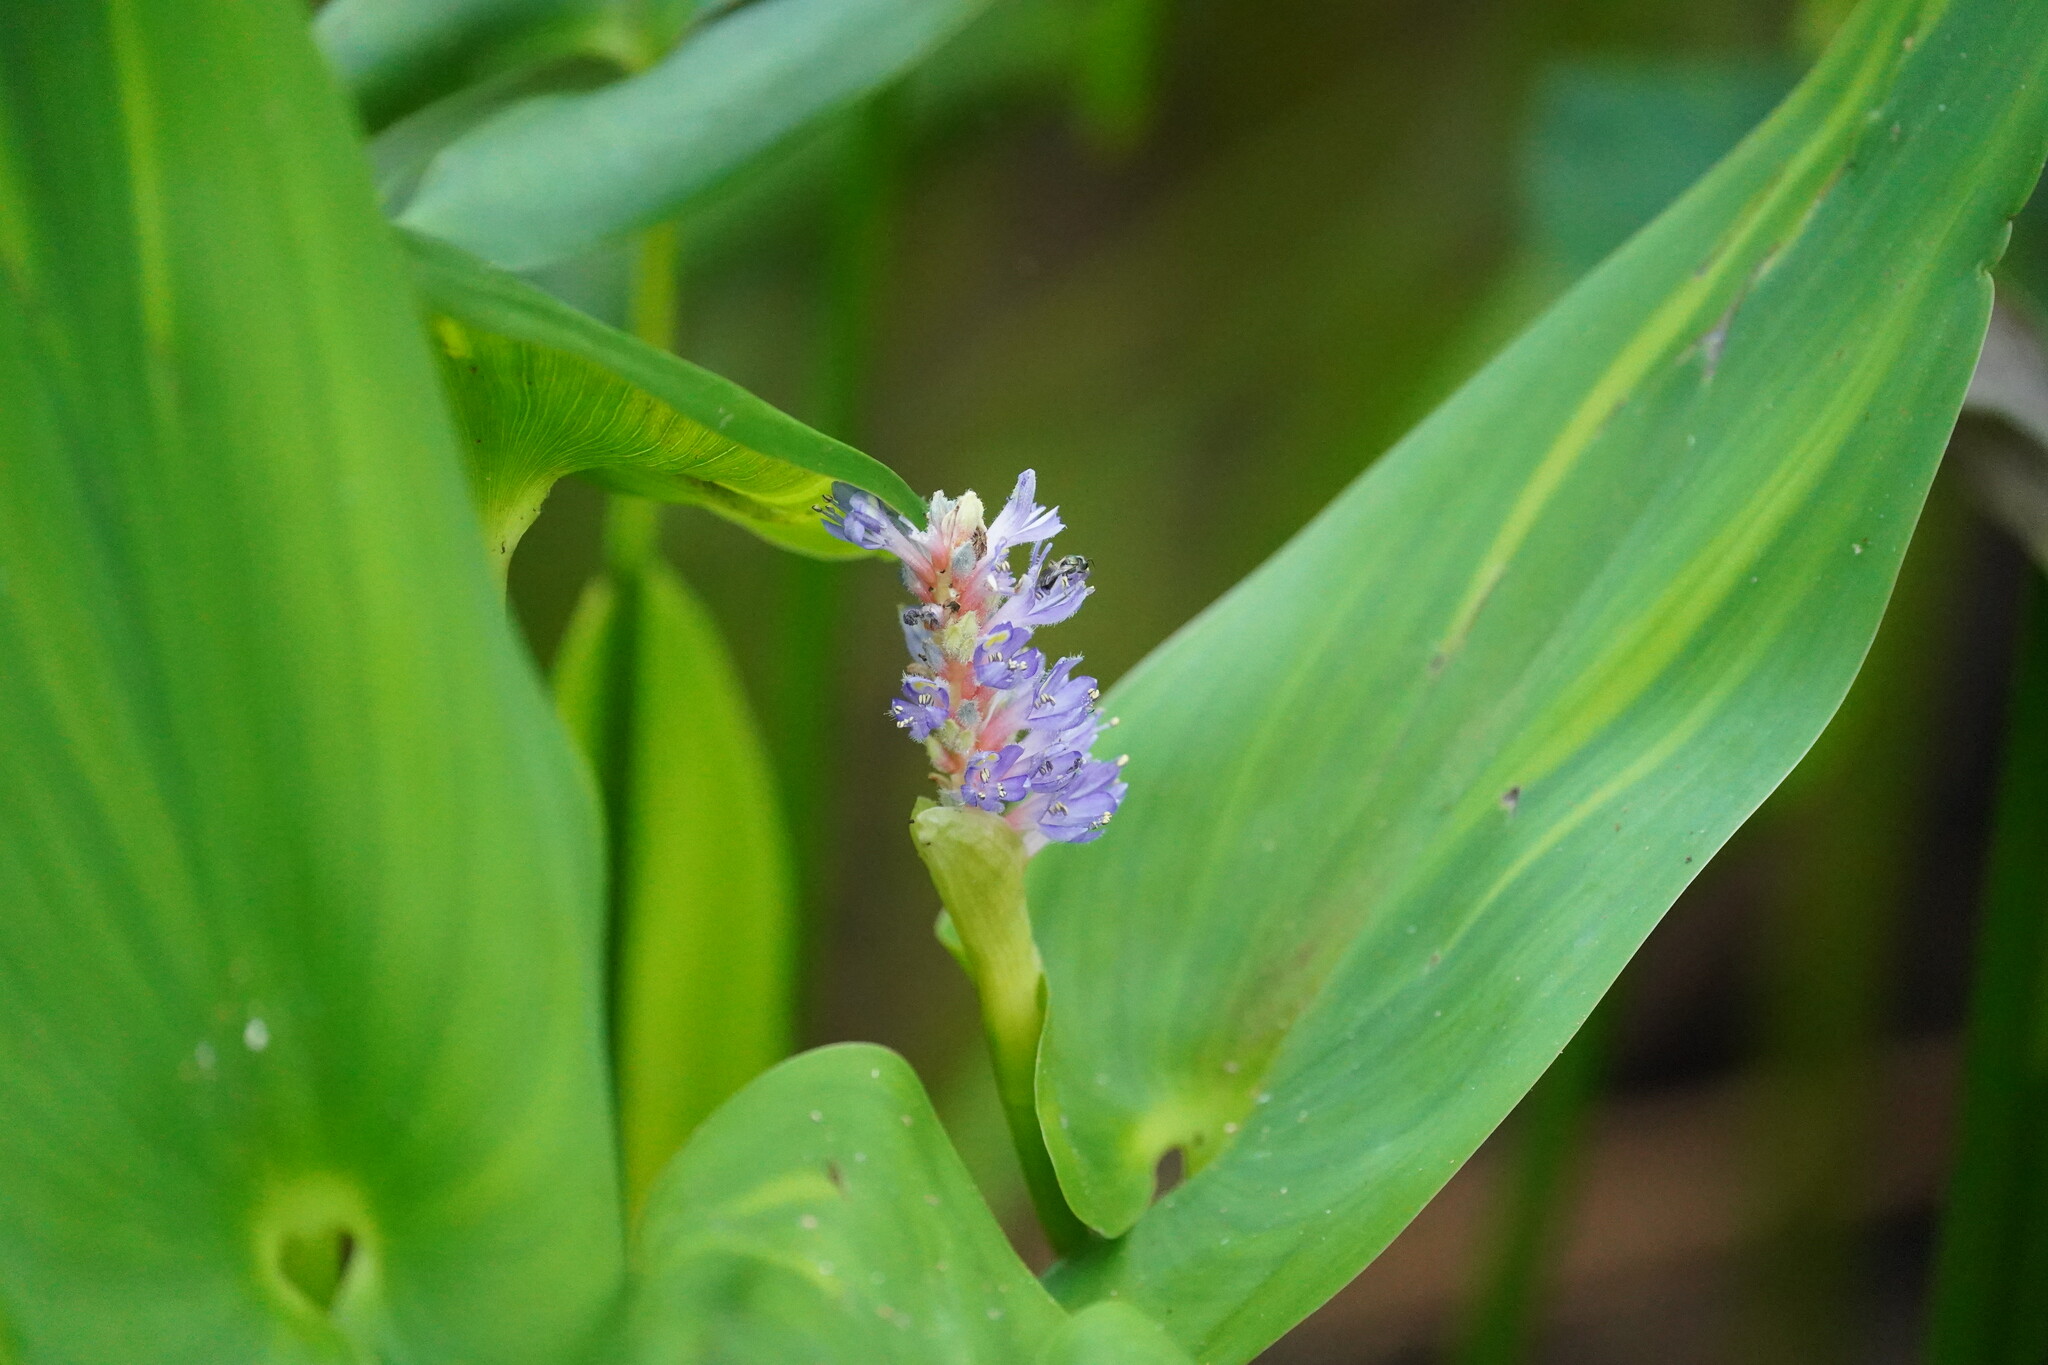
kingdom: Plantae
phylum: Tracheophyta
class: Liliopsida
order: Commelinales
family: Pontederiaceae
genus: Pontederia
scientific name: Pontederia cordata
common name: Pickerelweed
